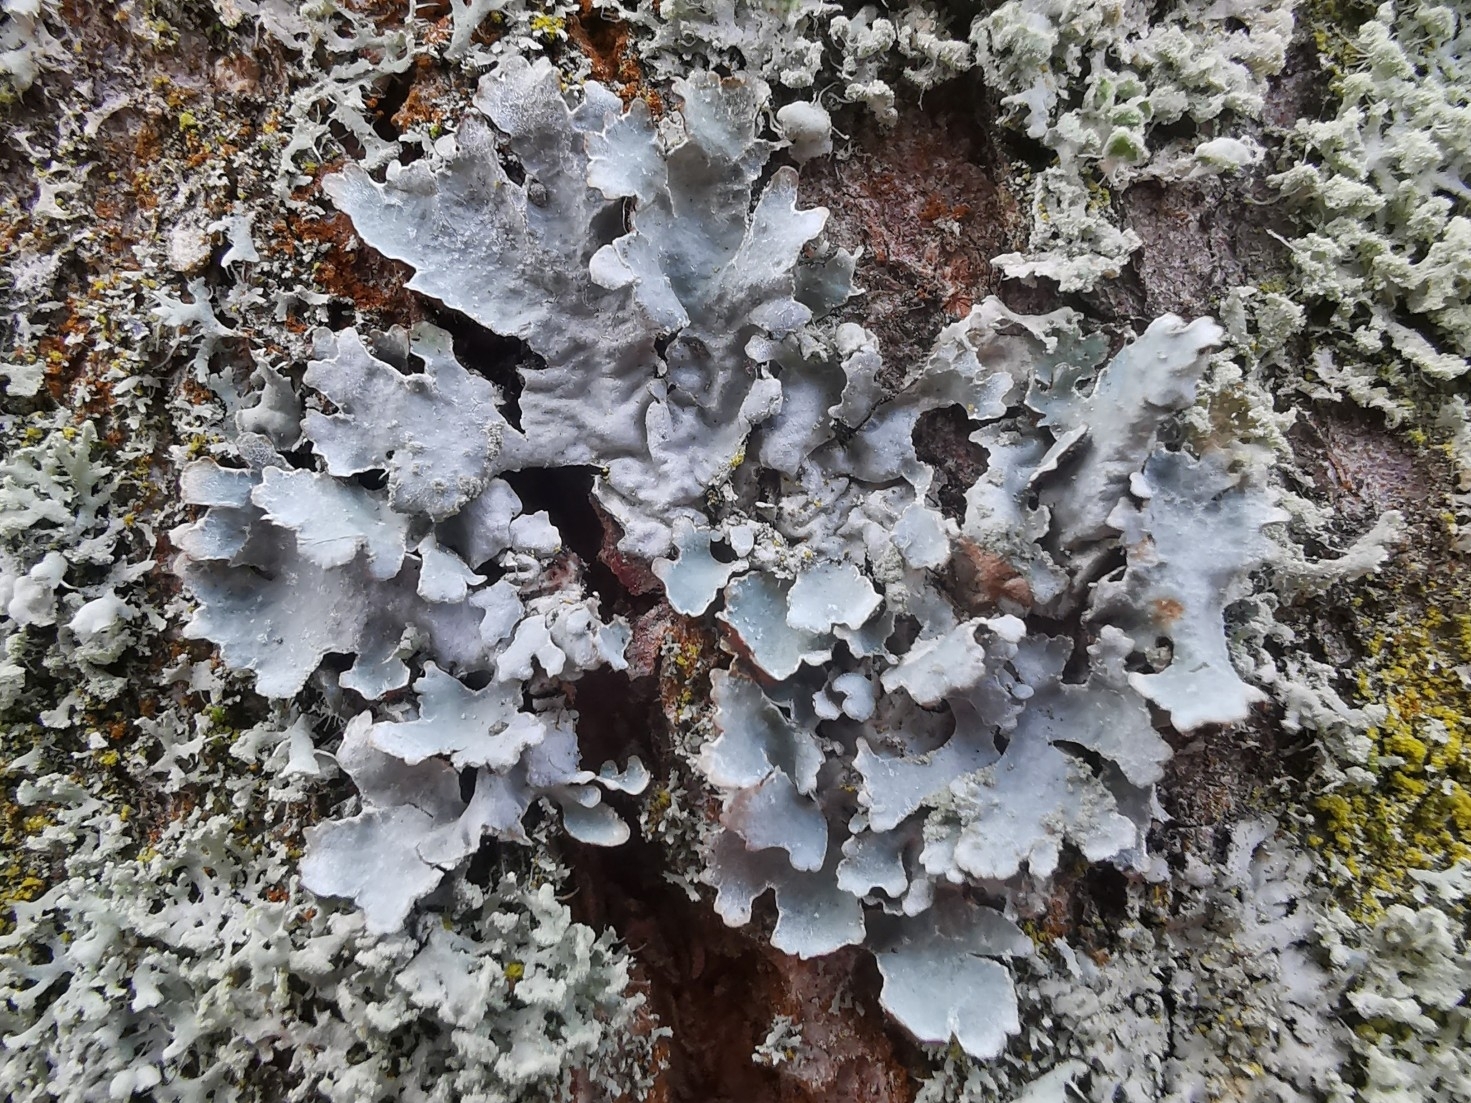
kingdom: Fungi
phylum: Ascomycota
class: Lecanoromycetes
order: Lecanorales
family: Parmeliaceae
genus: Parmelia
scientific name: Parmelia sulcata
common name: Netted shield lichen
